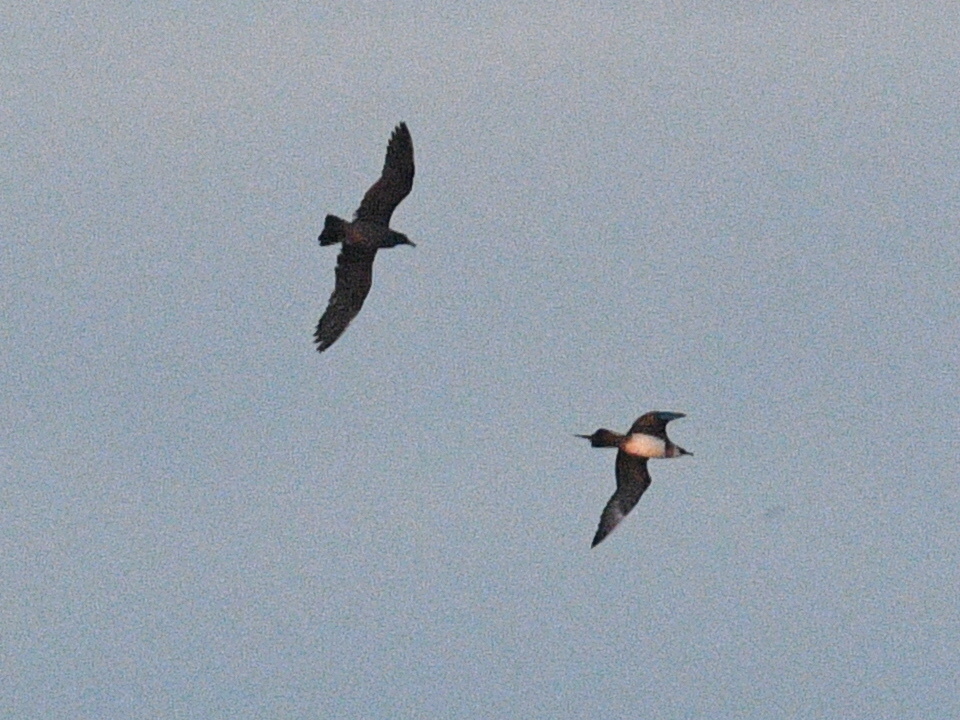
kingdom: Animalia
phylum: Chordata
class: Aves
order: Charadriiformes
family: Stercorariidae
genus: Stercorarius
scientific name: Stercorarius parasiticus
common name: Parasitic jaeger
